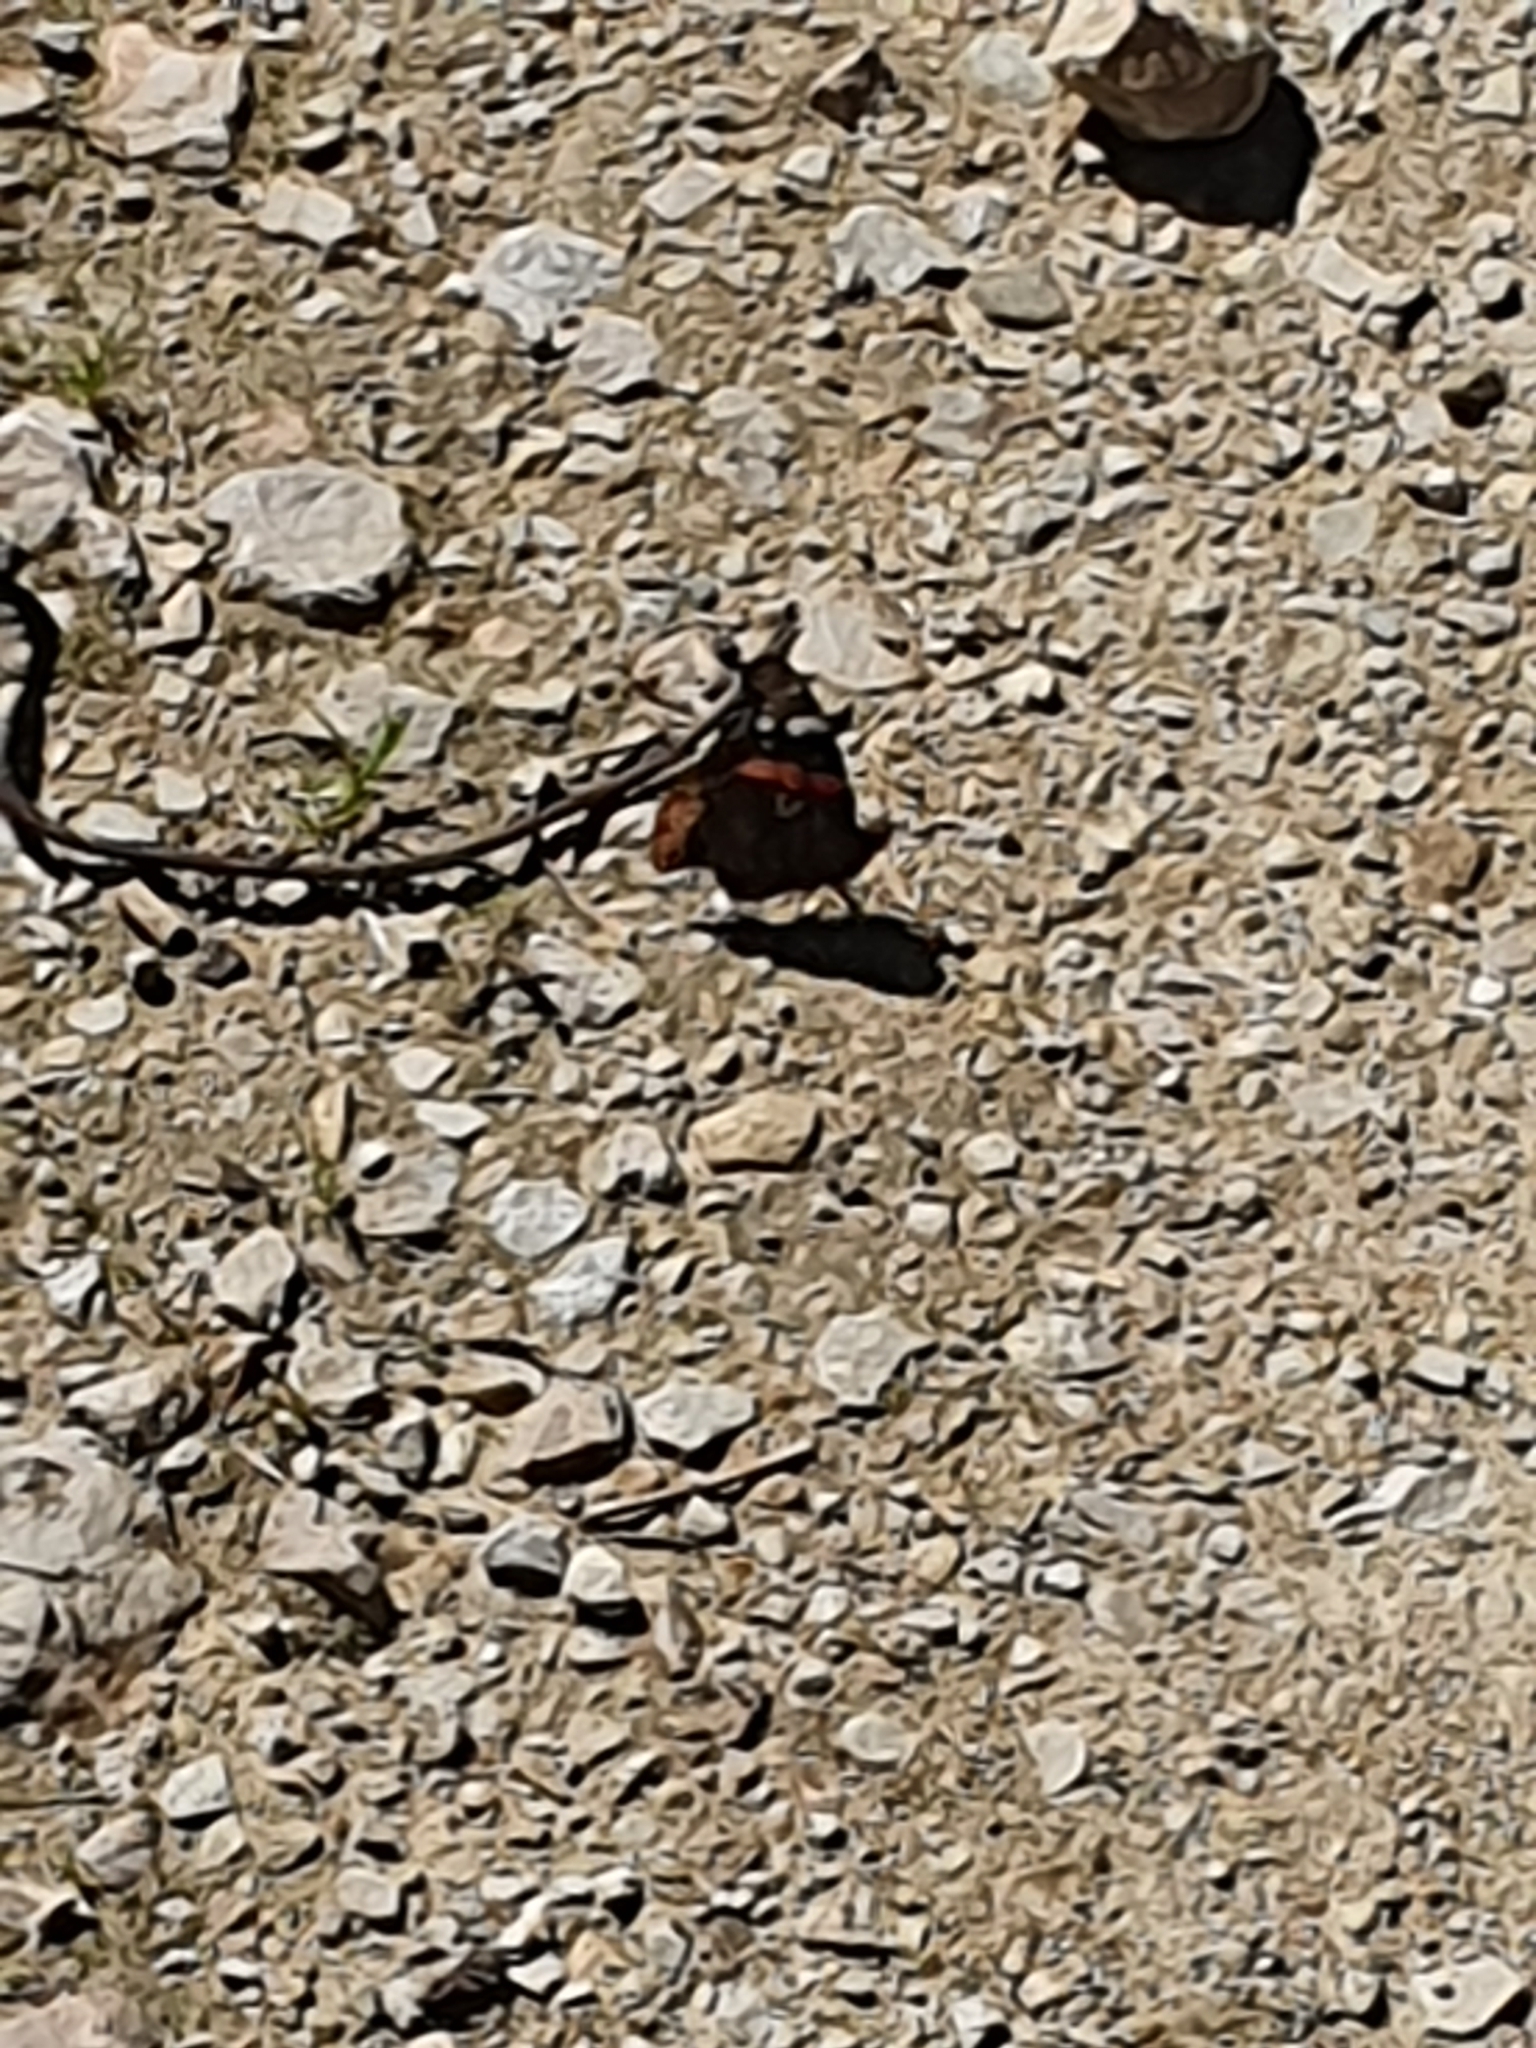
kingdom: Animalia
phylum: Arthropoda
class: Insecta
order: Lepidoptera
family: Nymphalidae
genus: Vanessa
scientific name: Vanessa atalanta
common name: Red admiral
